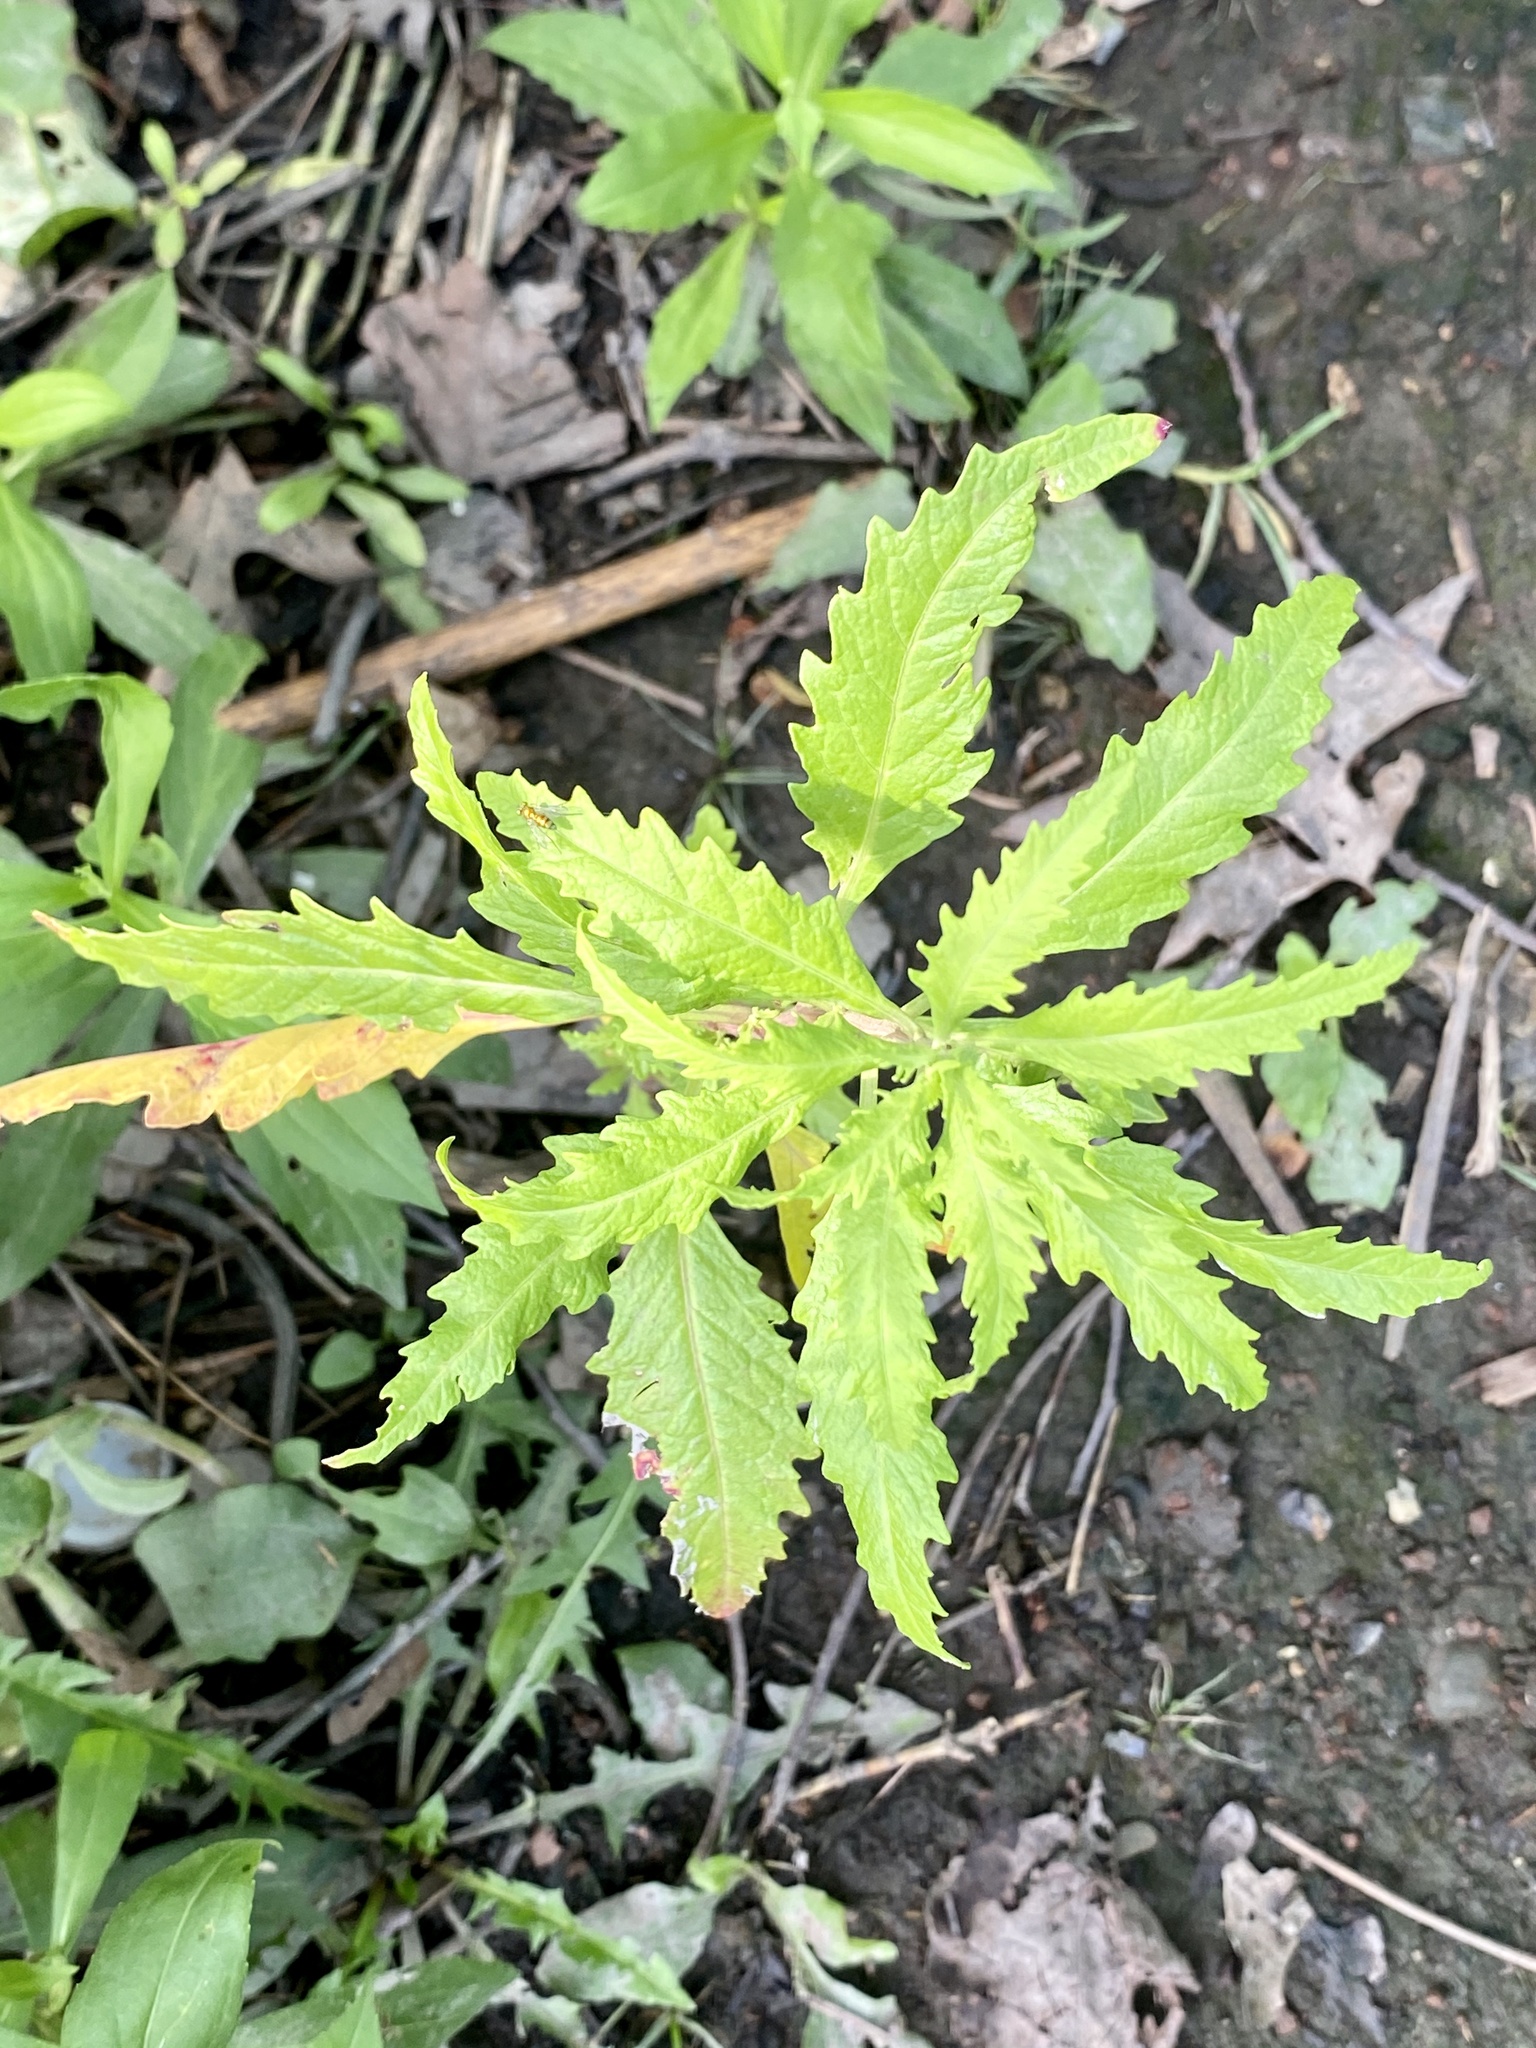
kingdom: Plantae
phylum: Tracheophyta
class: Magnoliopsida
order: Caryophyllales
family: Amaranthaceae
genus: Dysphania
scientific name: Dysphania ambrosioides
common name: Wormseed
